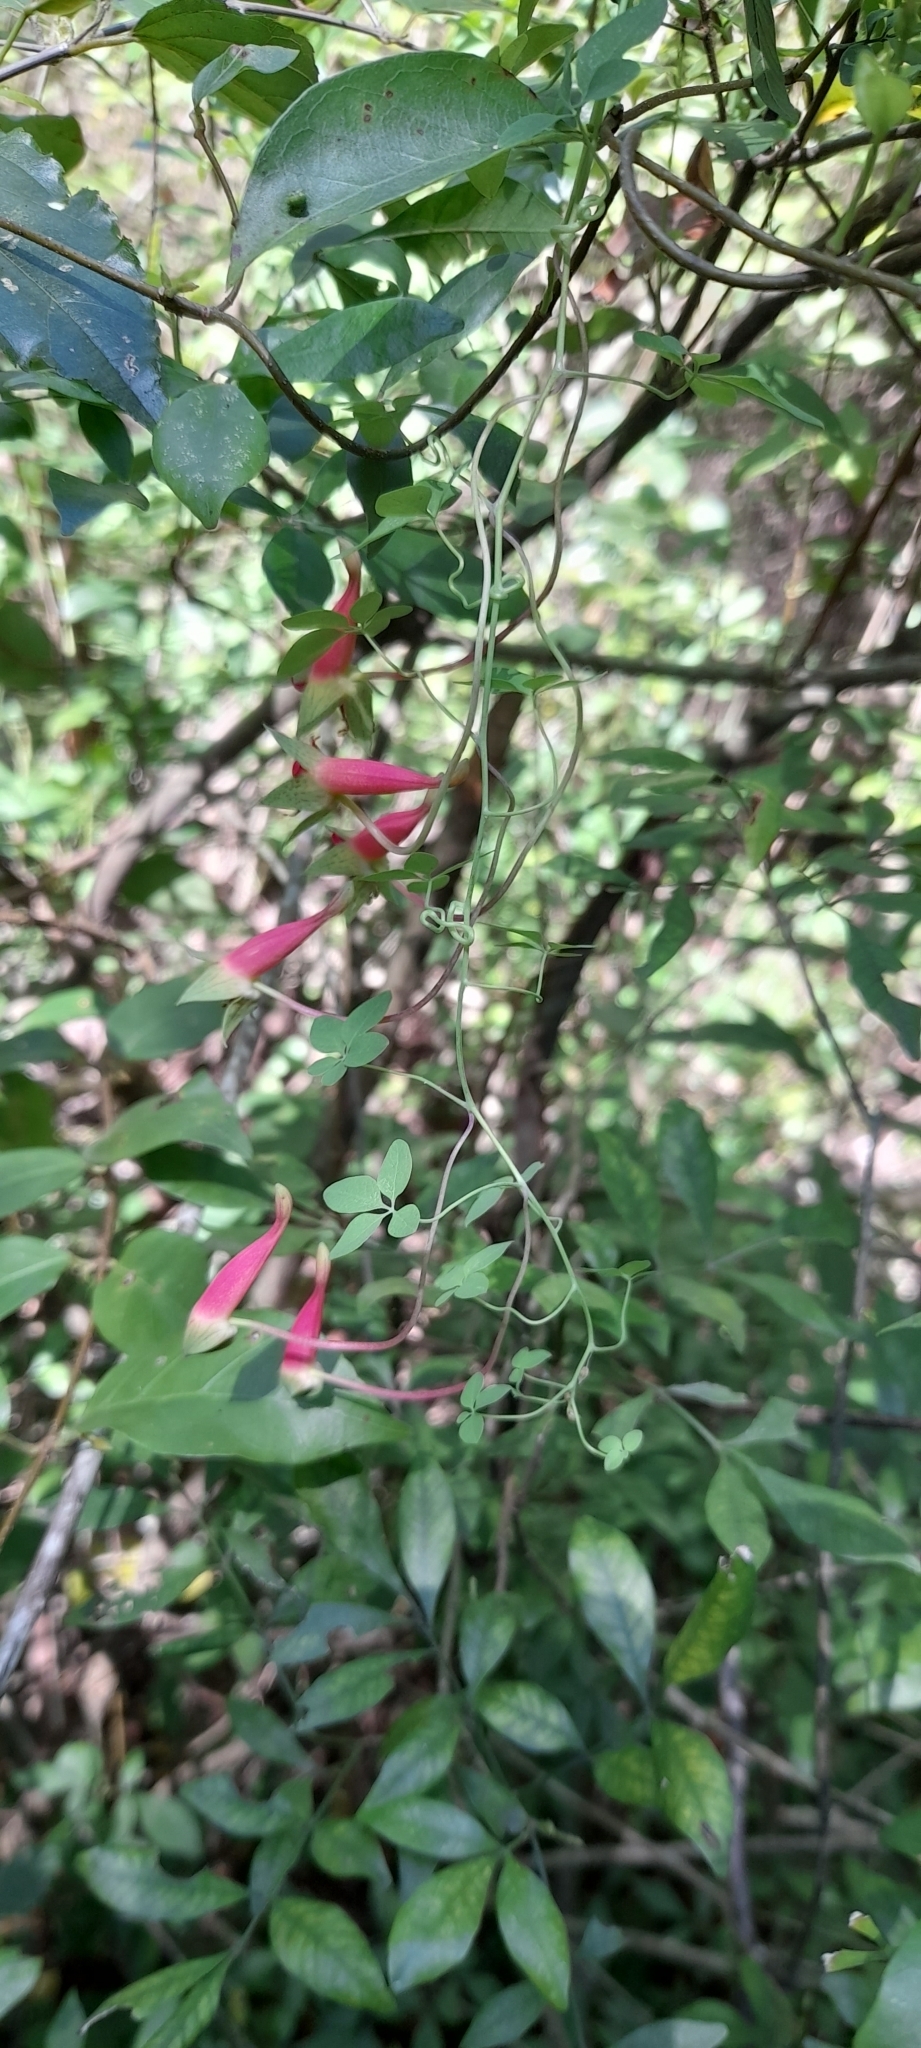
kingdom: Plantae
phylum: Tracheophyta
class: Magnoliopsida
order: Brassicales
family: Tropaeolaceae
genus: Tropaeolum
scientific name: Tropaeolum pentaphyllum
